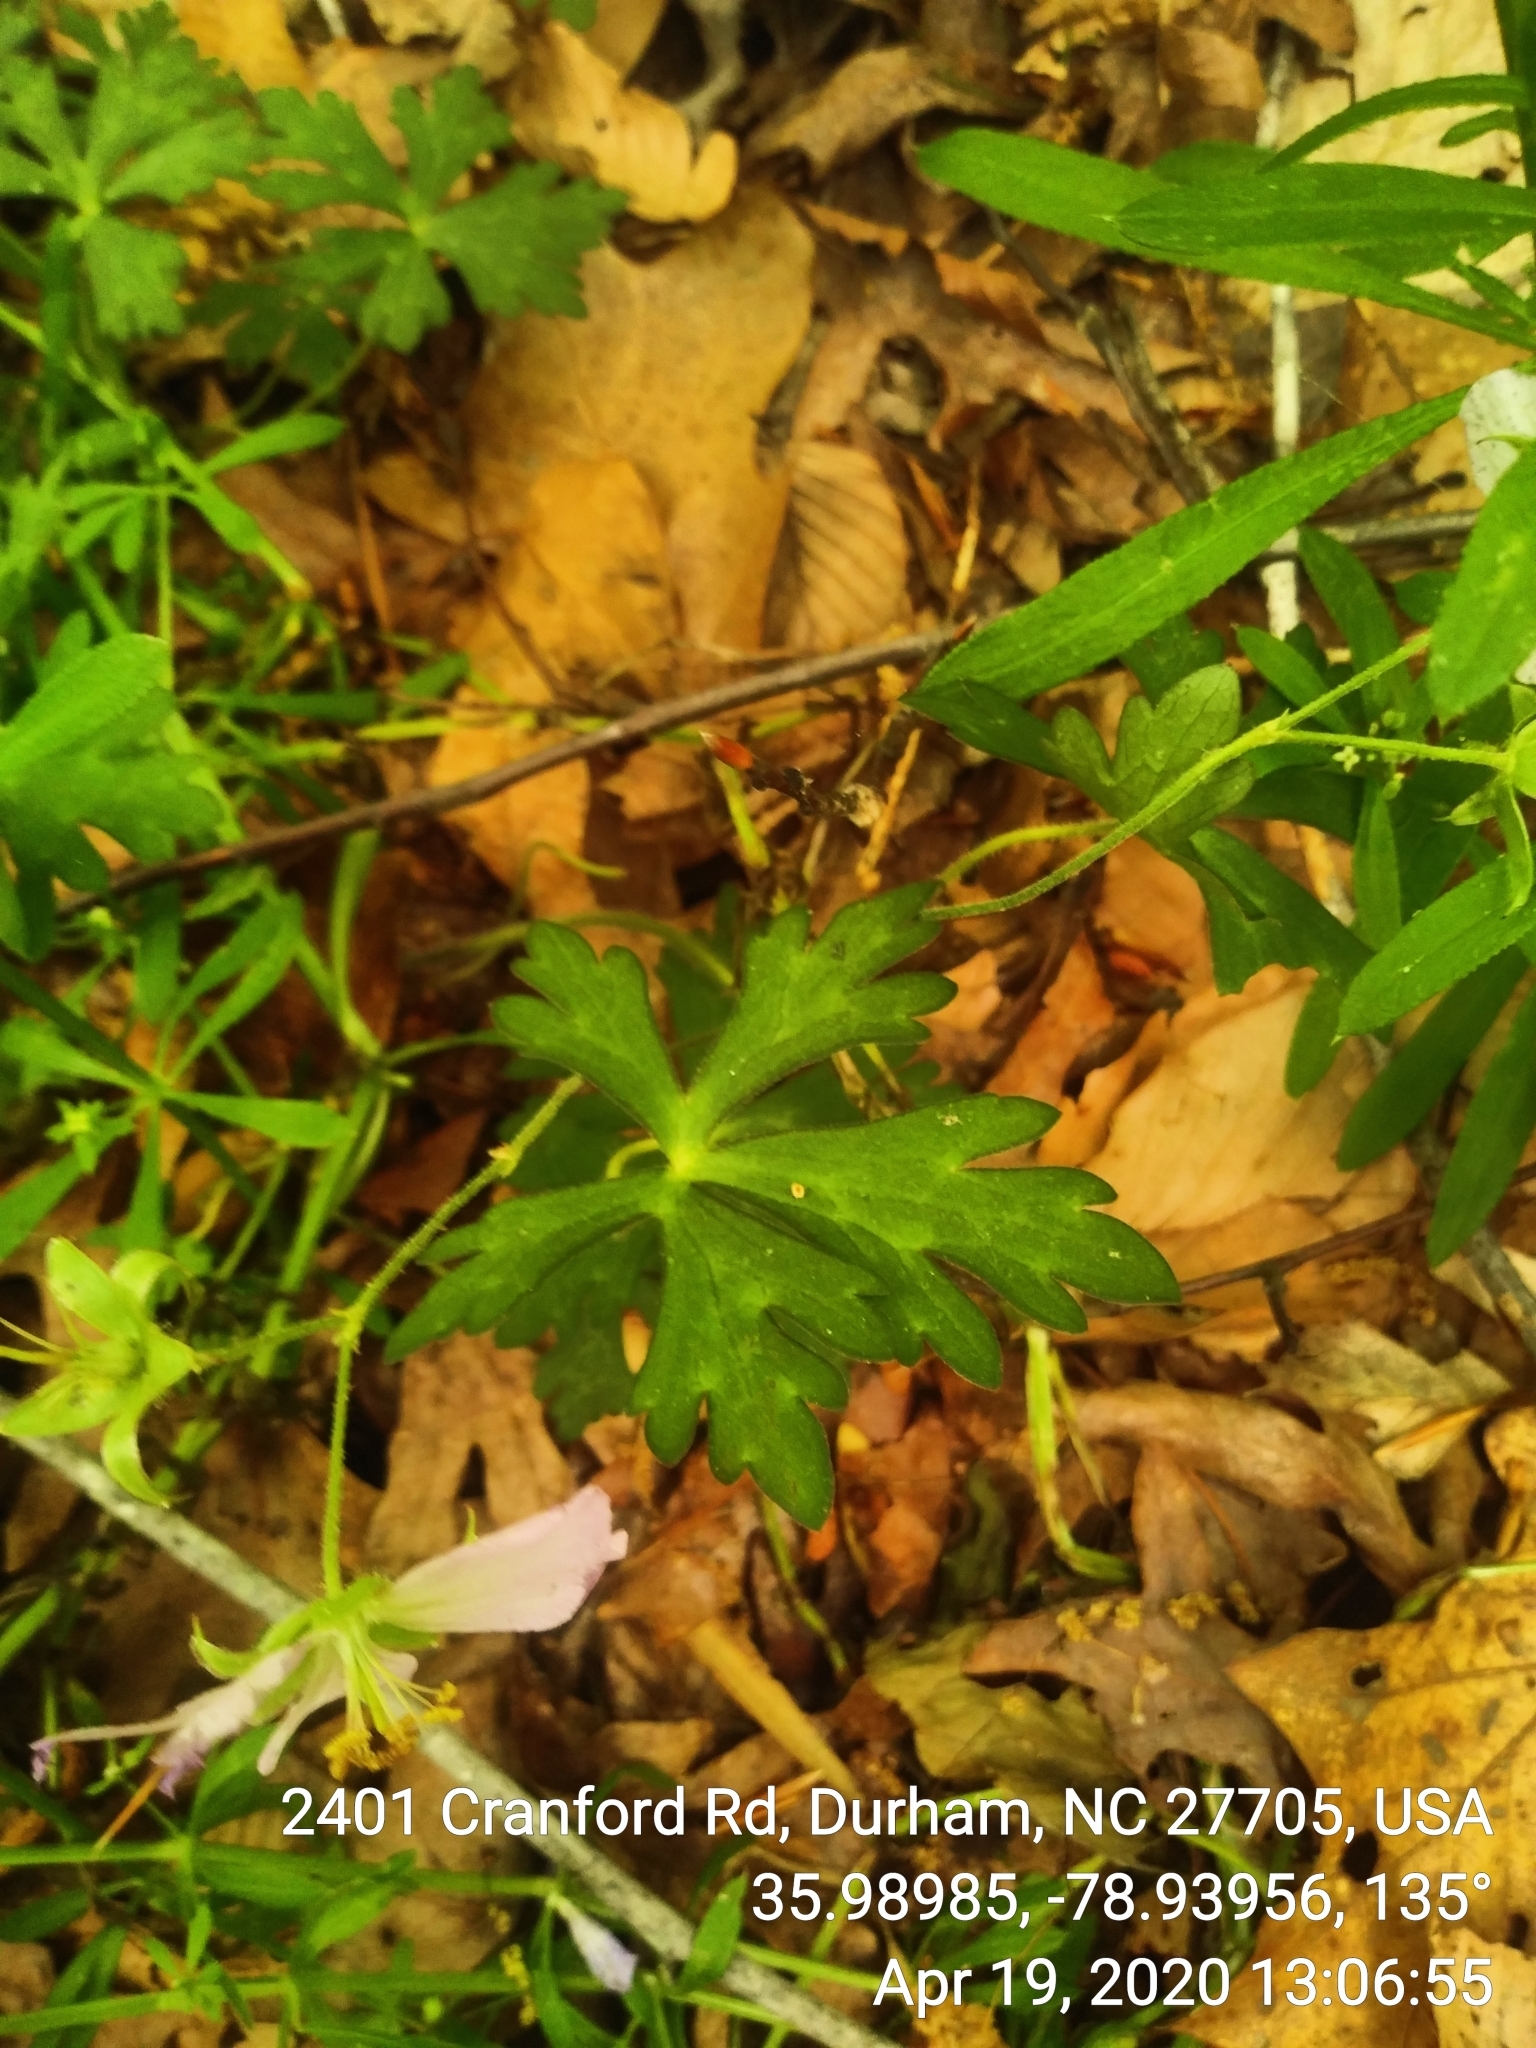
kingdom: Plantae
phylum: Tracheophyta
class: Magnoliopsida
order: Geraniales
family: Geraniaceae
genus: Geranium
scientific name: Geranium maculatum
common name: Spotted geranium
